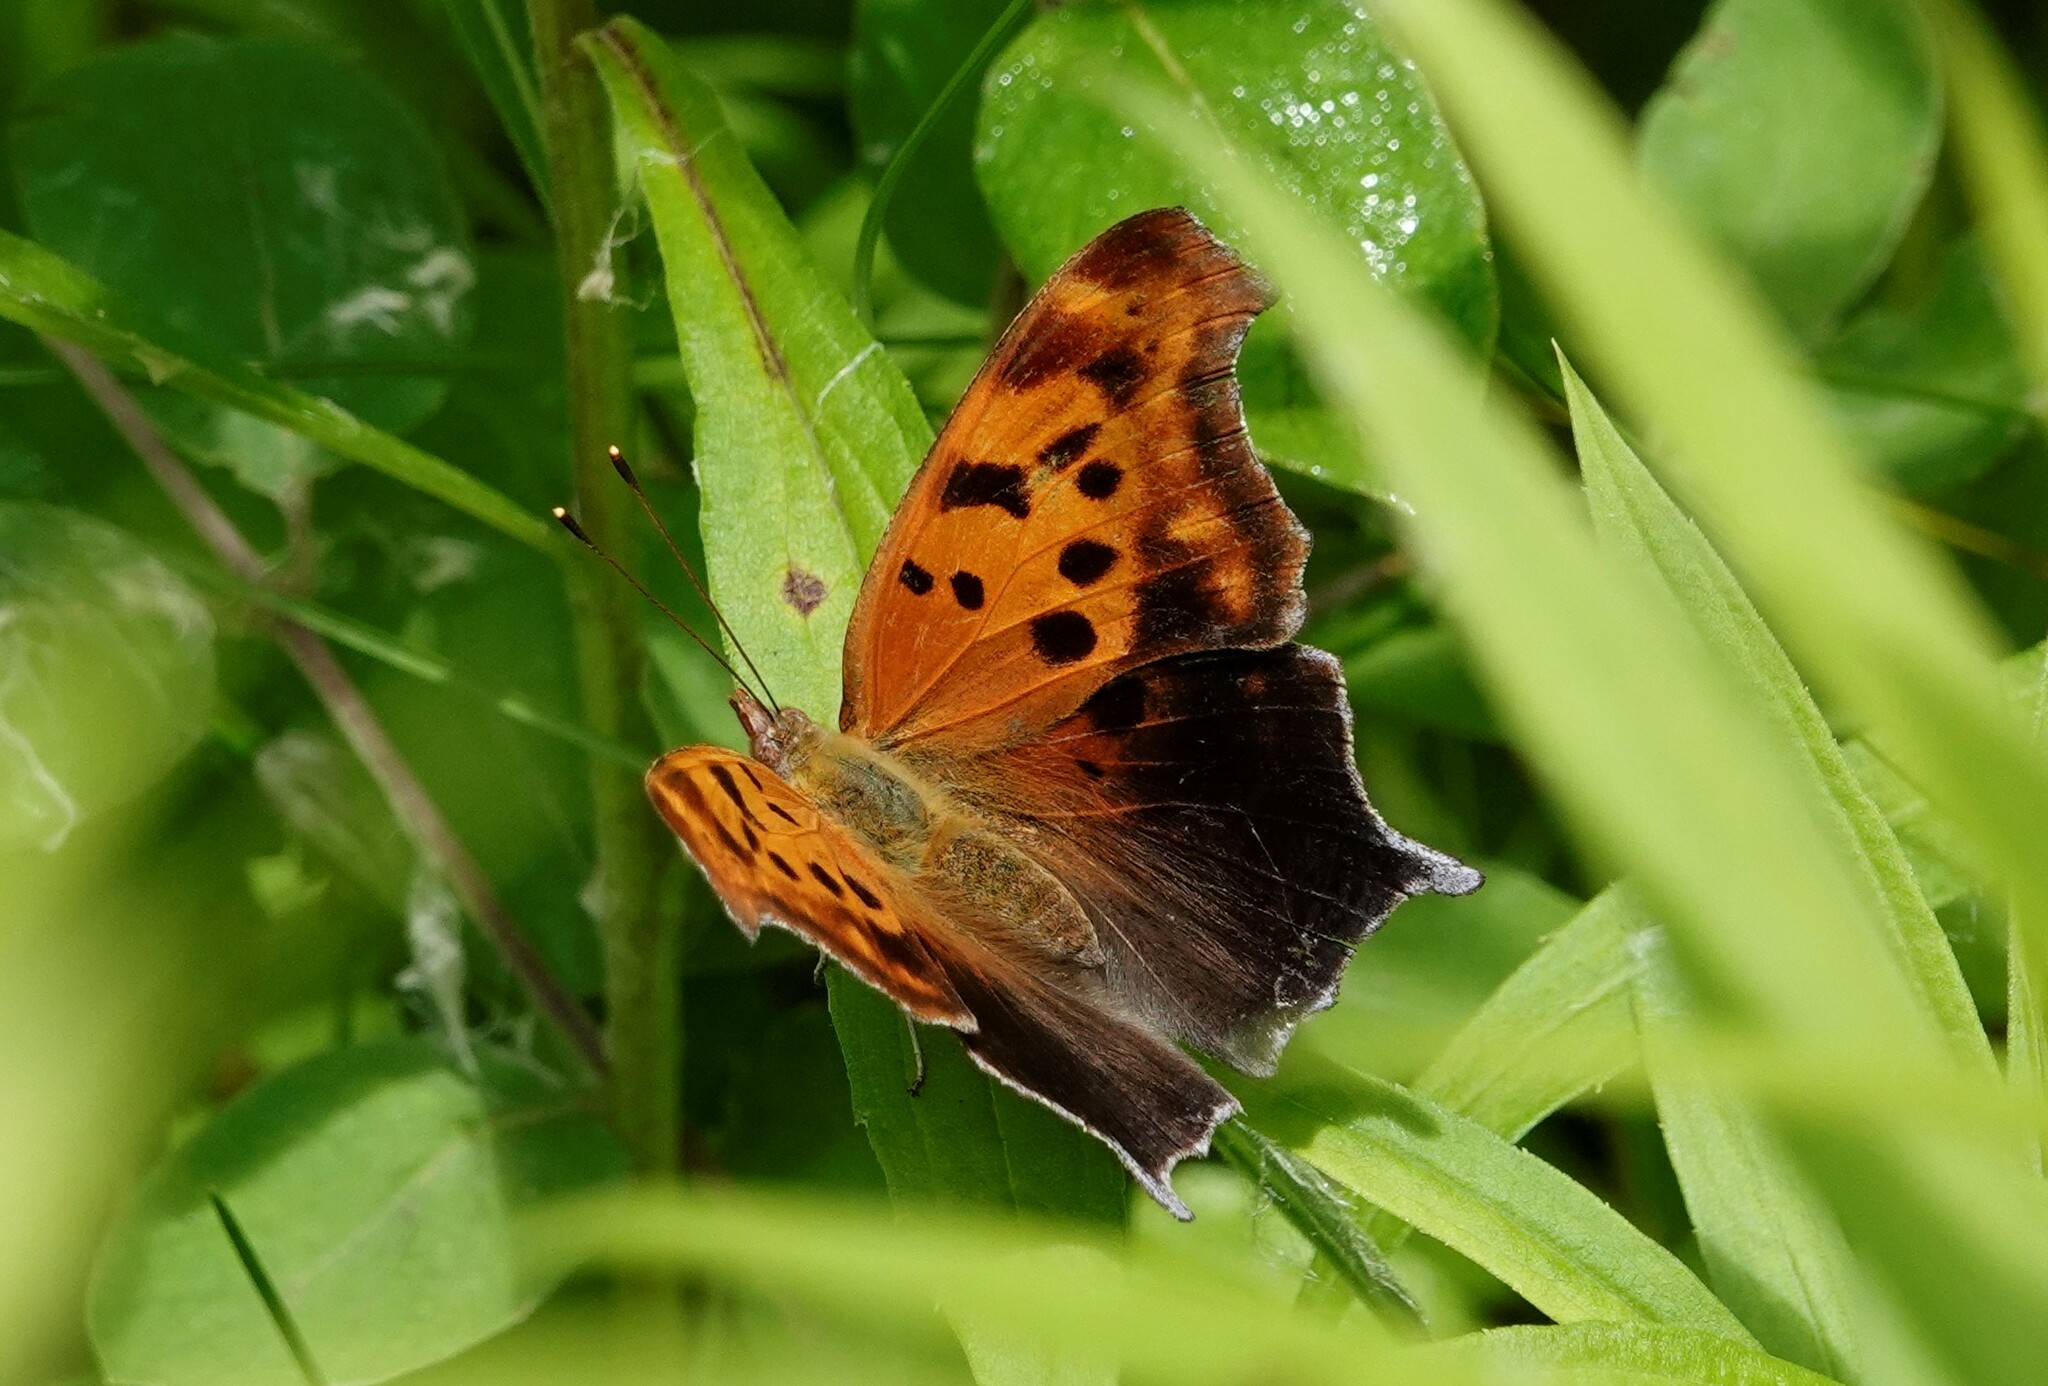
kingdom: Animalia
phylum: Arthropoda
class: Insecta
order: Lepidoptera
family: Nymphalidae
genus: Polygonia
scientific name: Polygonia interrogationis
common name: Question mark
